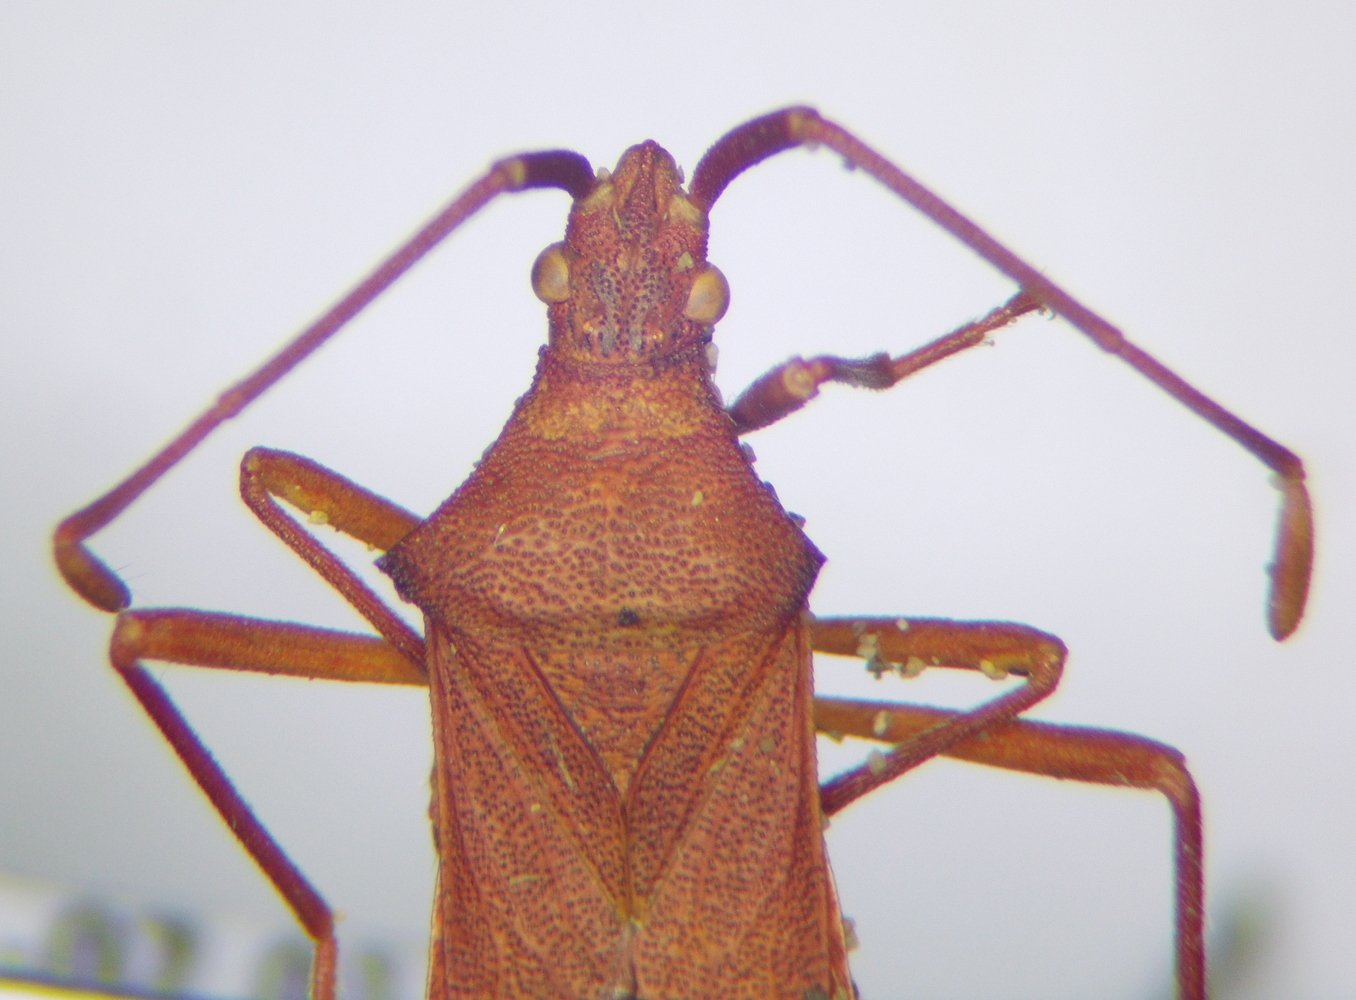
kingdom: Animalia
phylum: Arthropoda
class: Insecta
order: Hemiptera
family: Coreidae
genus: Gonocerus
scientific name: Gonocerus acuteangulatus
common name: Box bug
